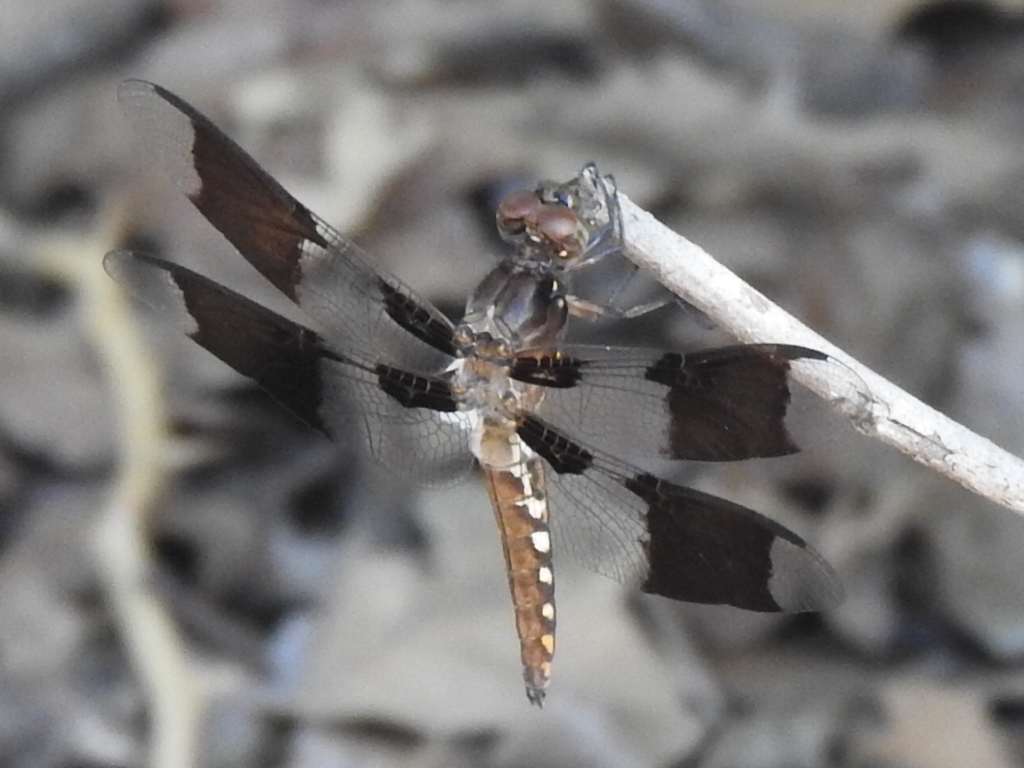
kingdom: Animalia
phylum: Arthropoda
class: Insecta
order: Odonata
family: Libellulidae
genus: Plathemis
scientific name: Plathemis lydia
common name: Common whitetail
